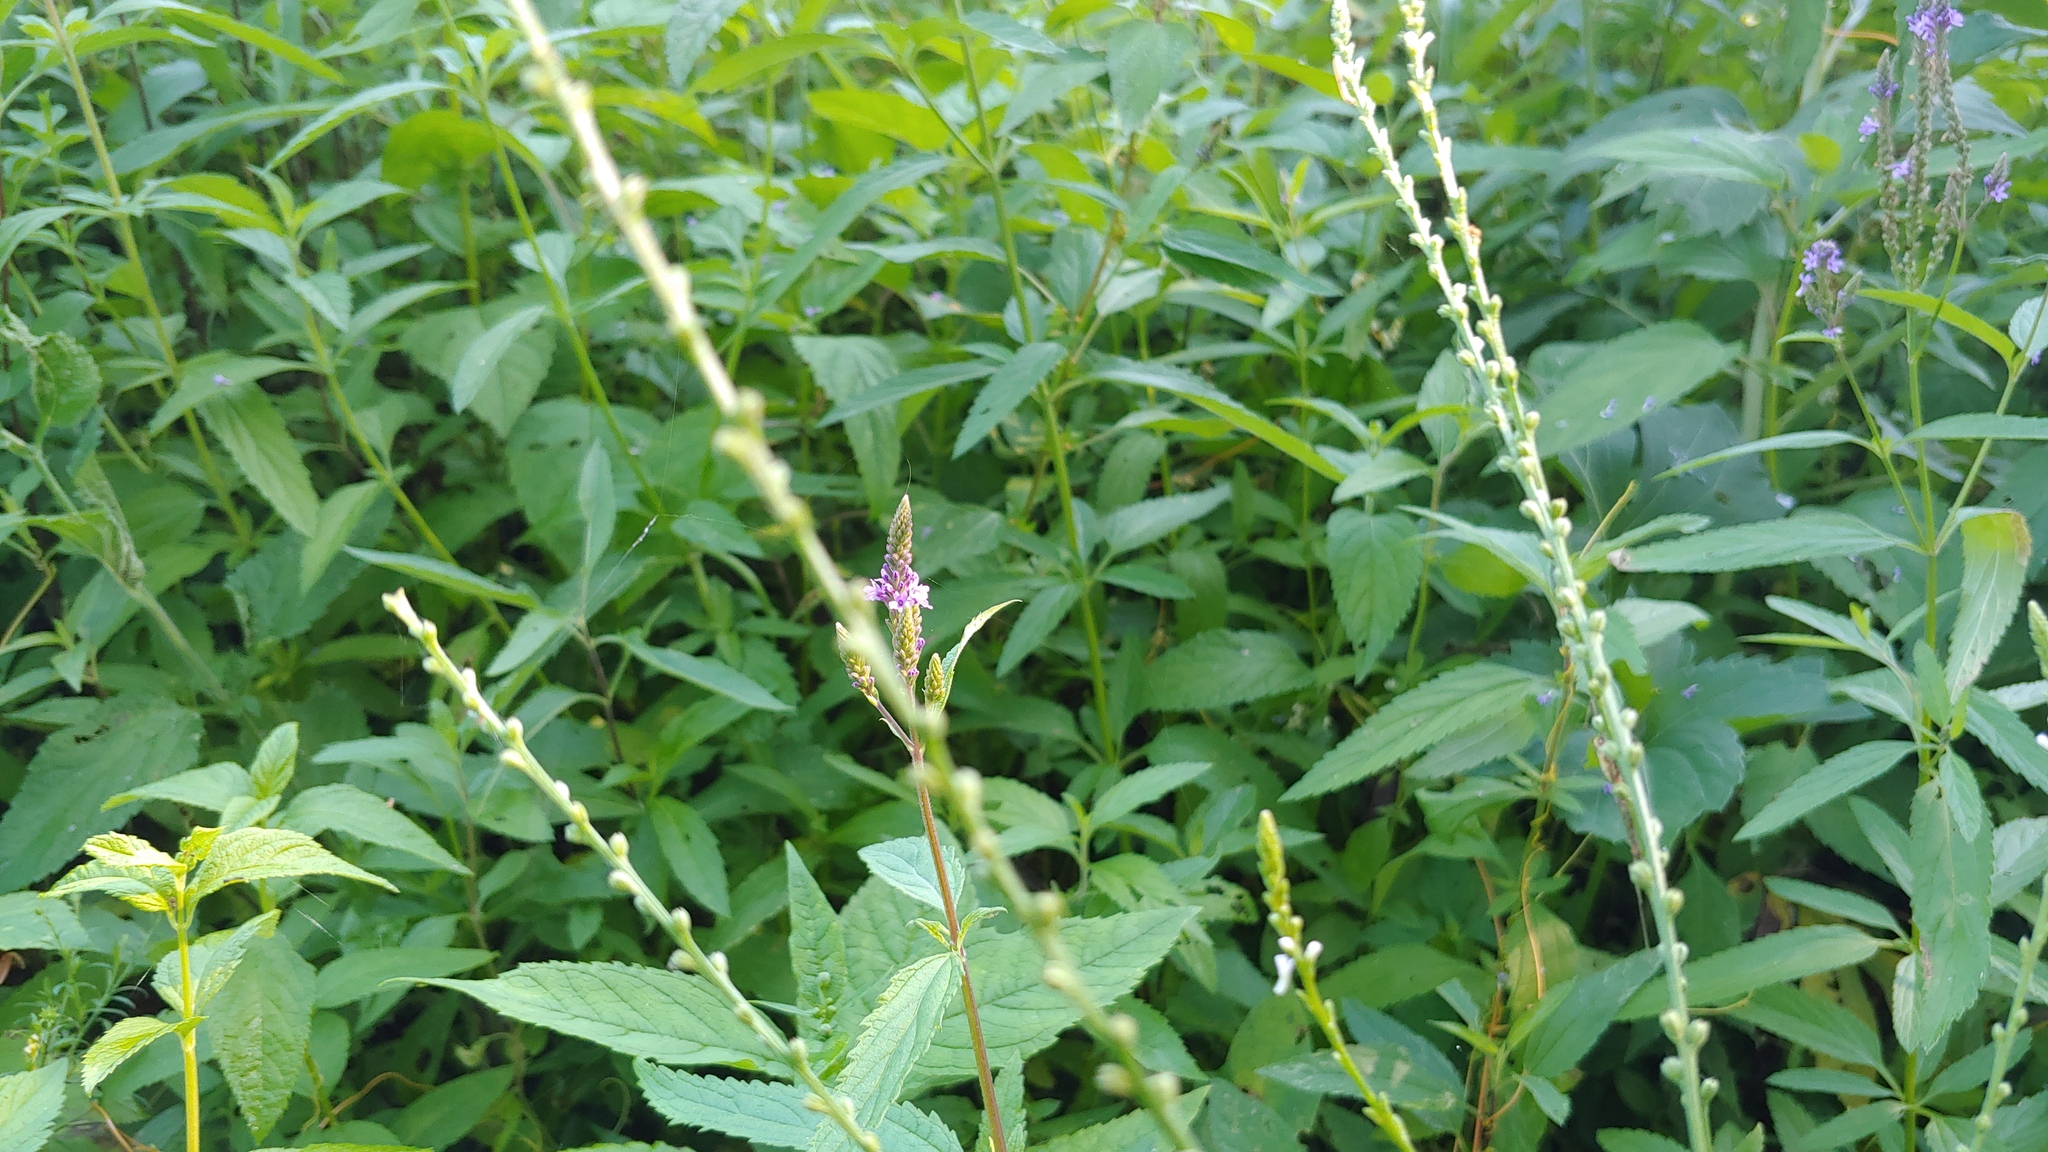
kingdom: Plantae
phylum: Tracheophyta
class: Magnoliopsida
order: Lamiales
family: Verbenaceae
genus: Verbena
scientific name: Verbena hastata
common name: American blue vervain
